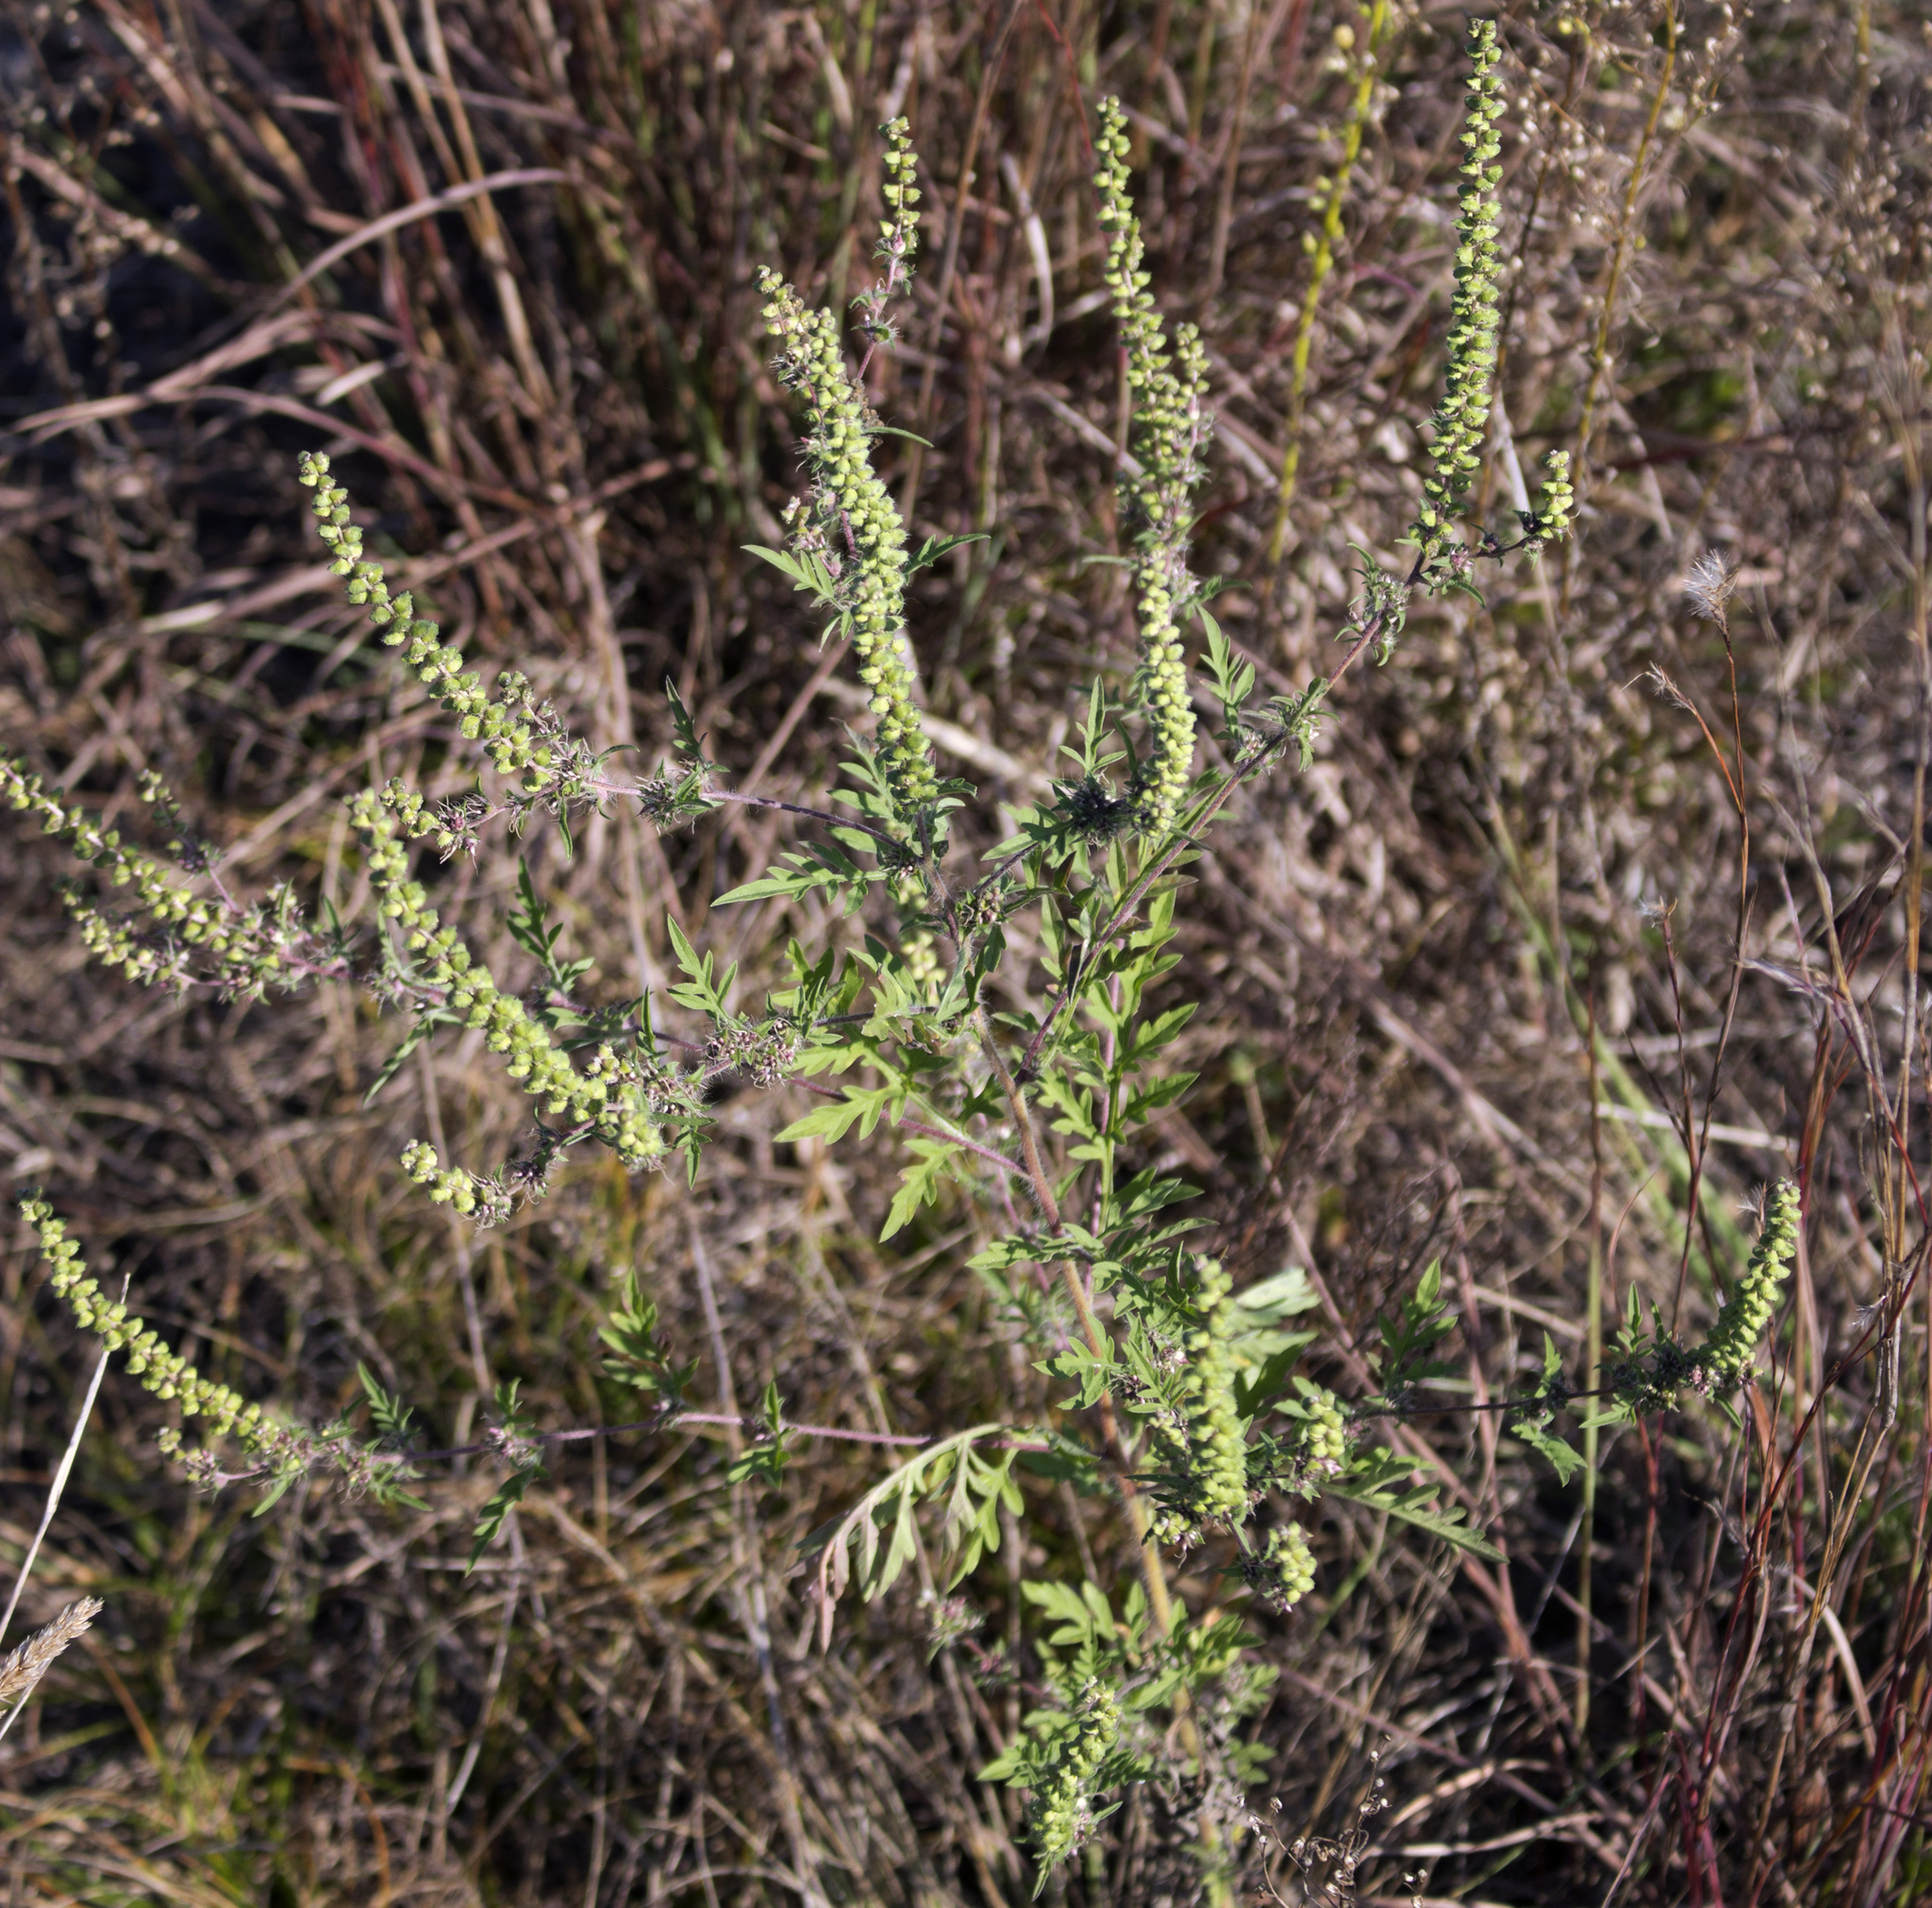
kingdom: Plantae
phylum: Tracheophyta
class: Magnoliopsida
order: Asterales
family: Asteraceae
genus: Ambrosia
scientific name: Ambrosia artemisiifolia
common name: Annual ragweed
